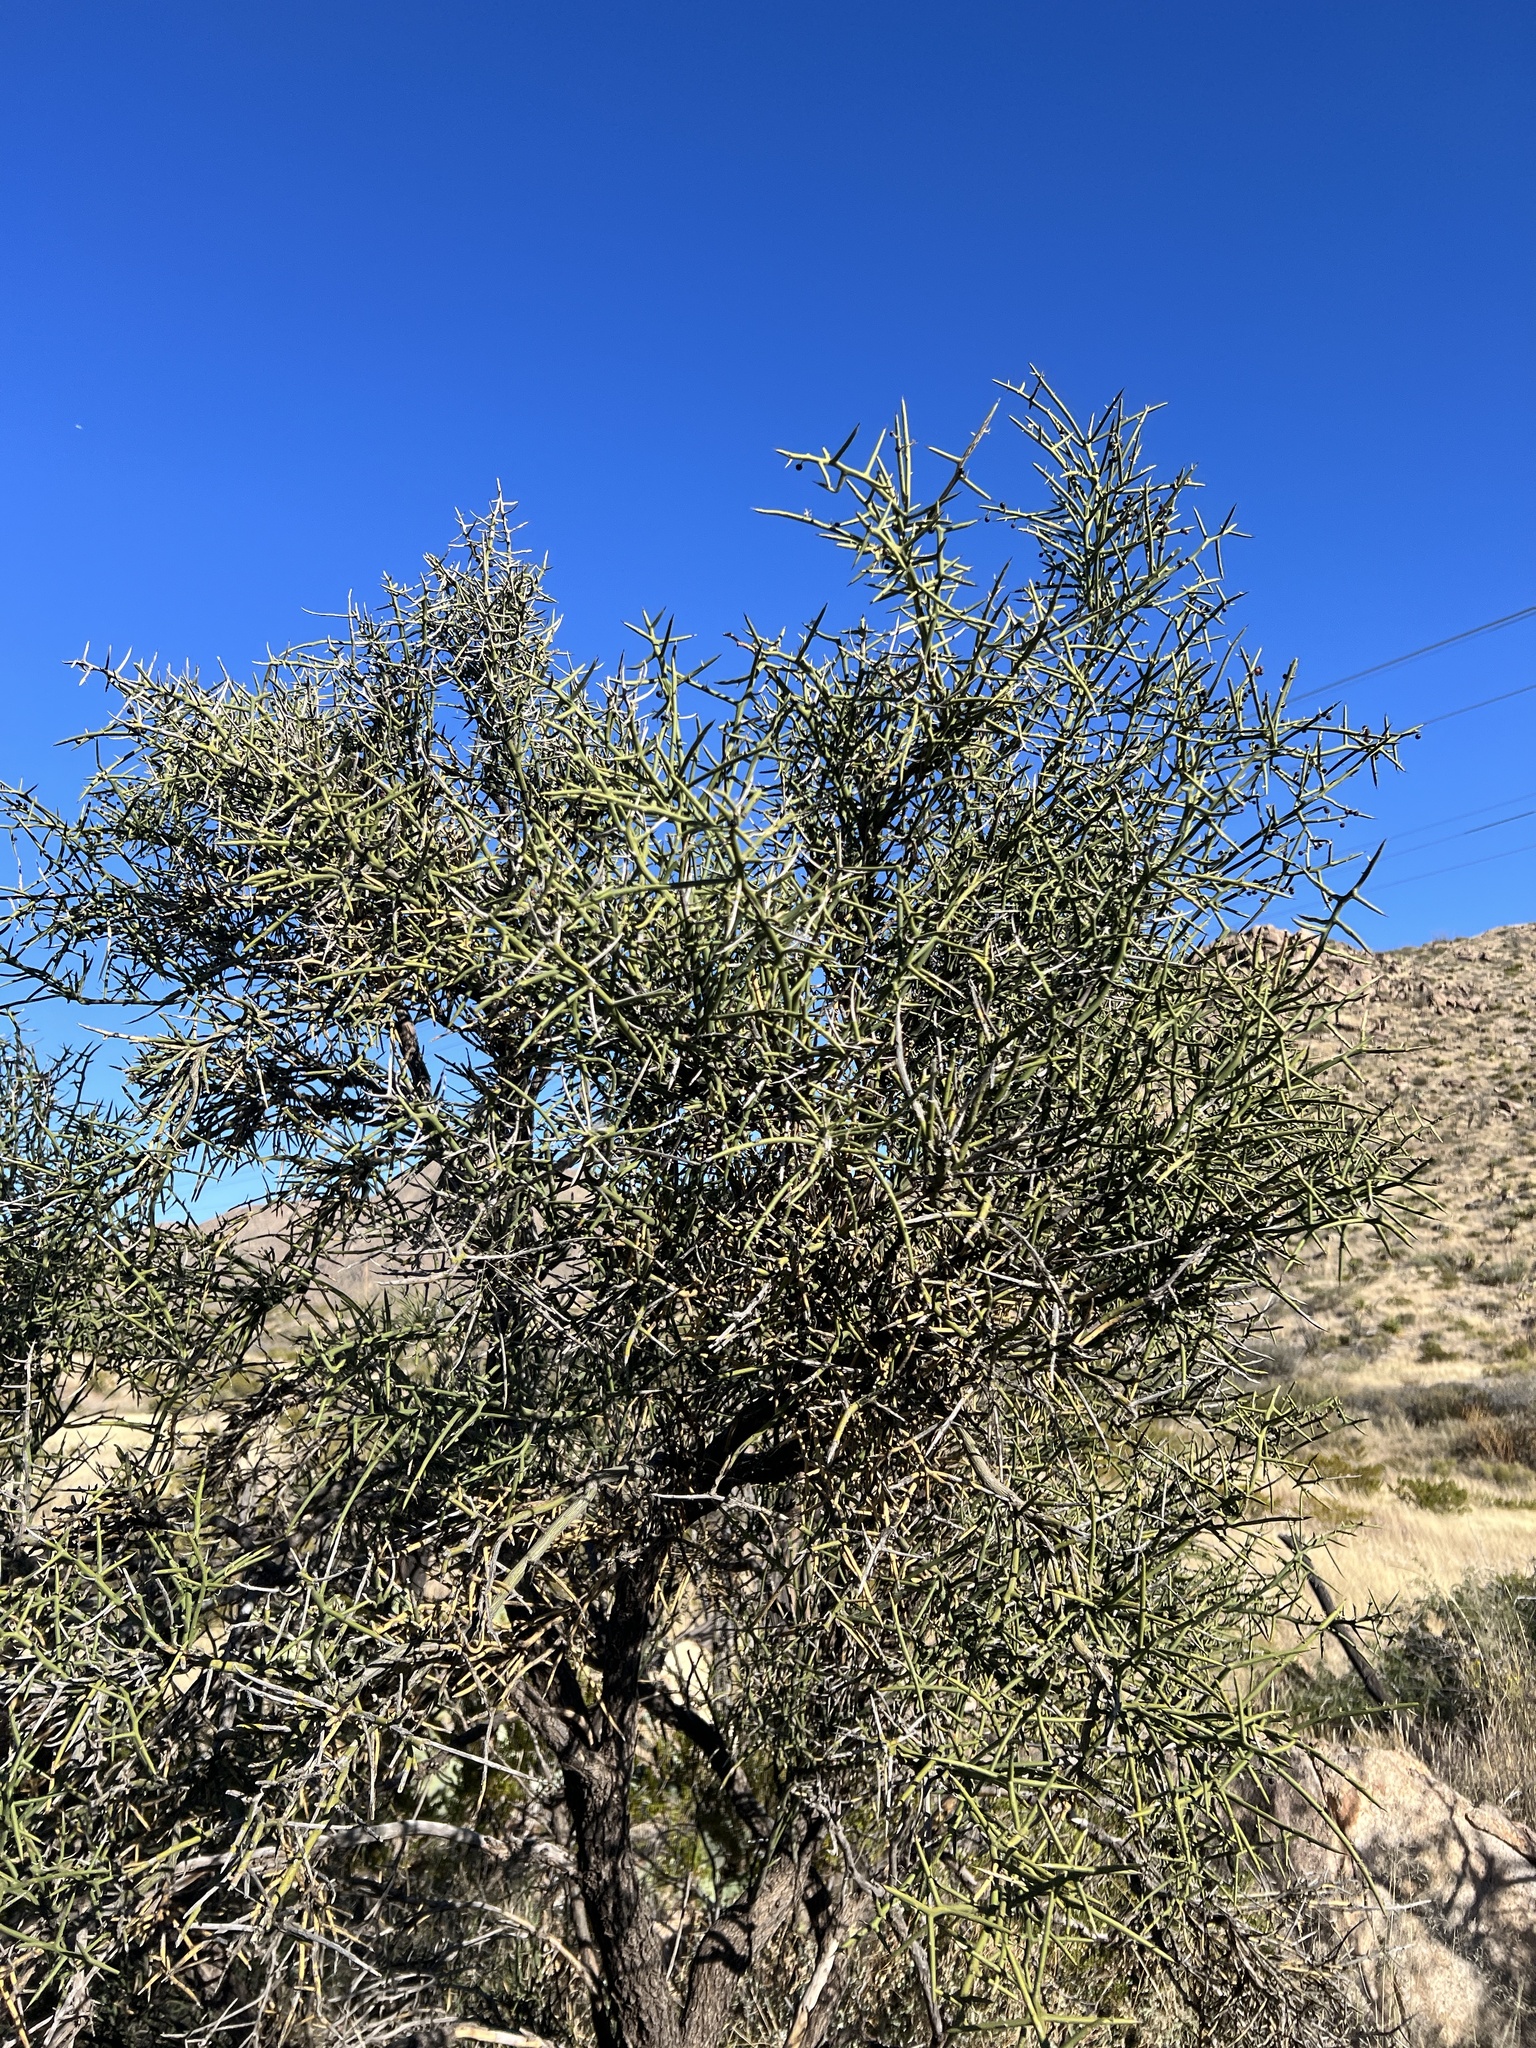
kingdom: Plantae
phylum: Tracheophyta
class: Magnoliopsida
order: Brassicales
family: Koeberliniaceae
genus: Koeberlinia
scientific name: Koeberlinia spinosa
